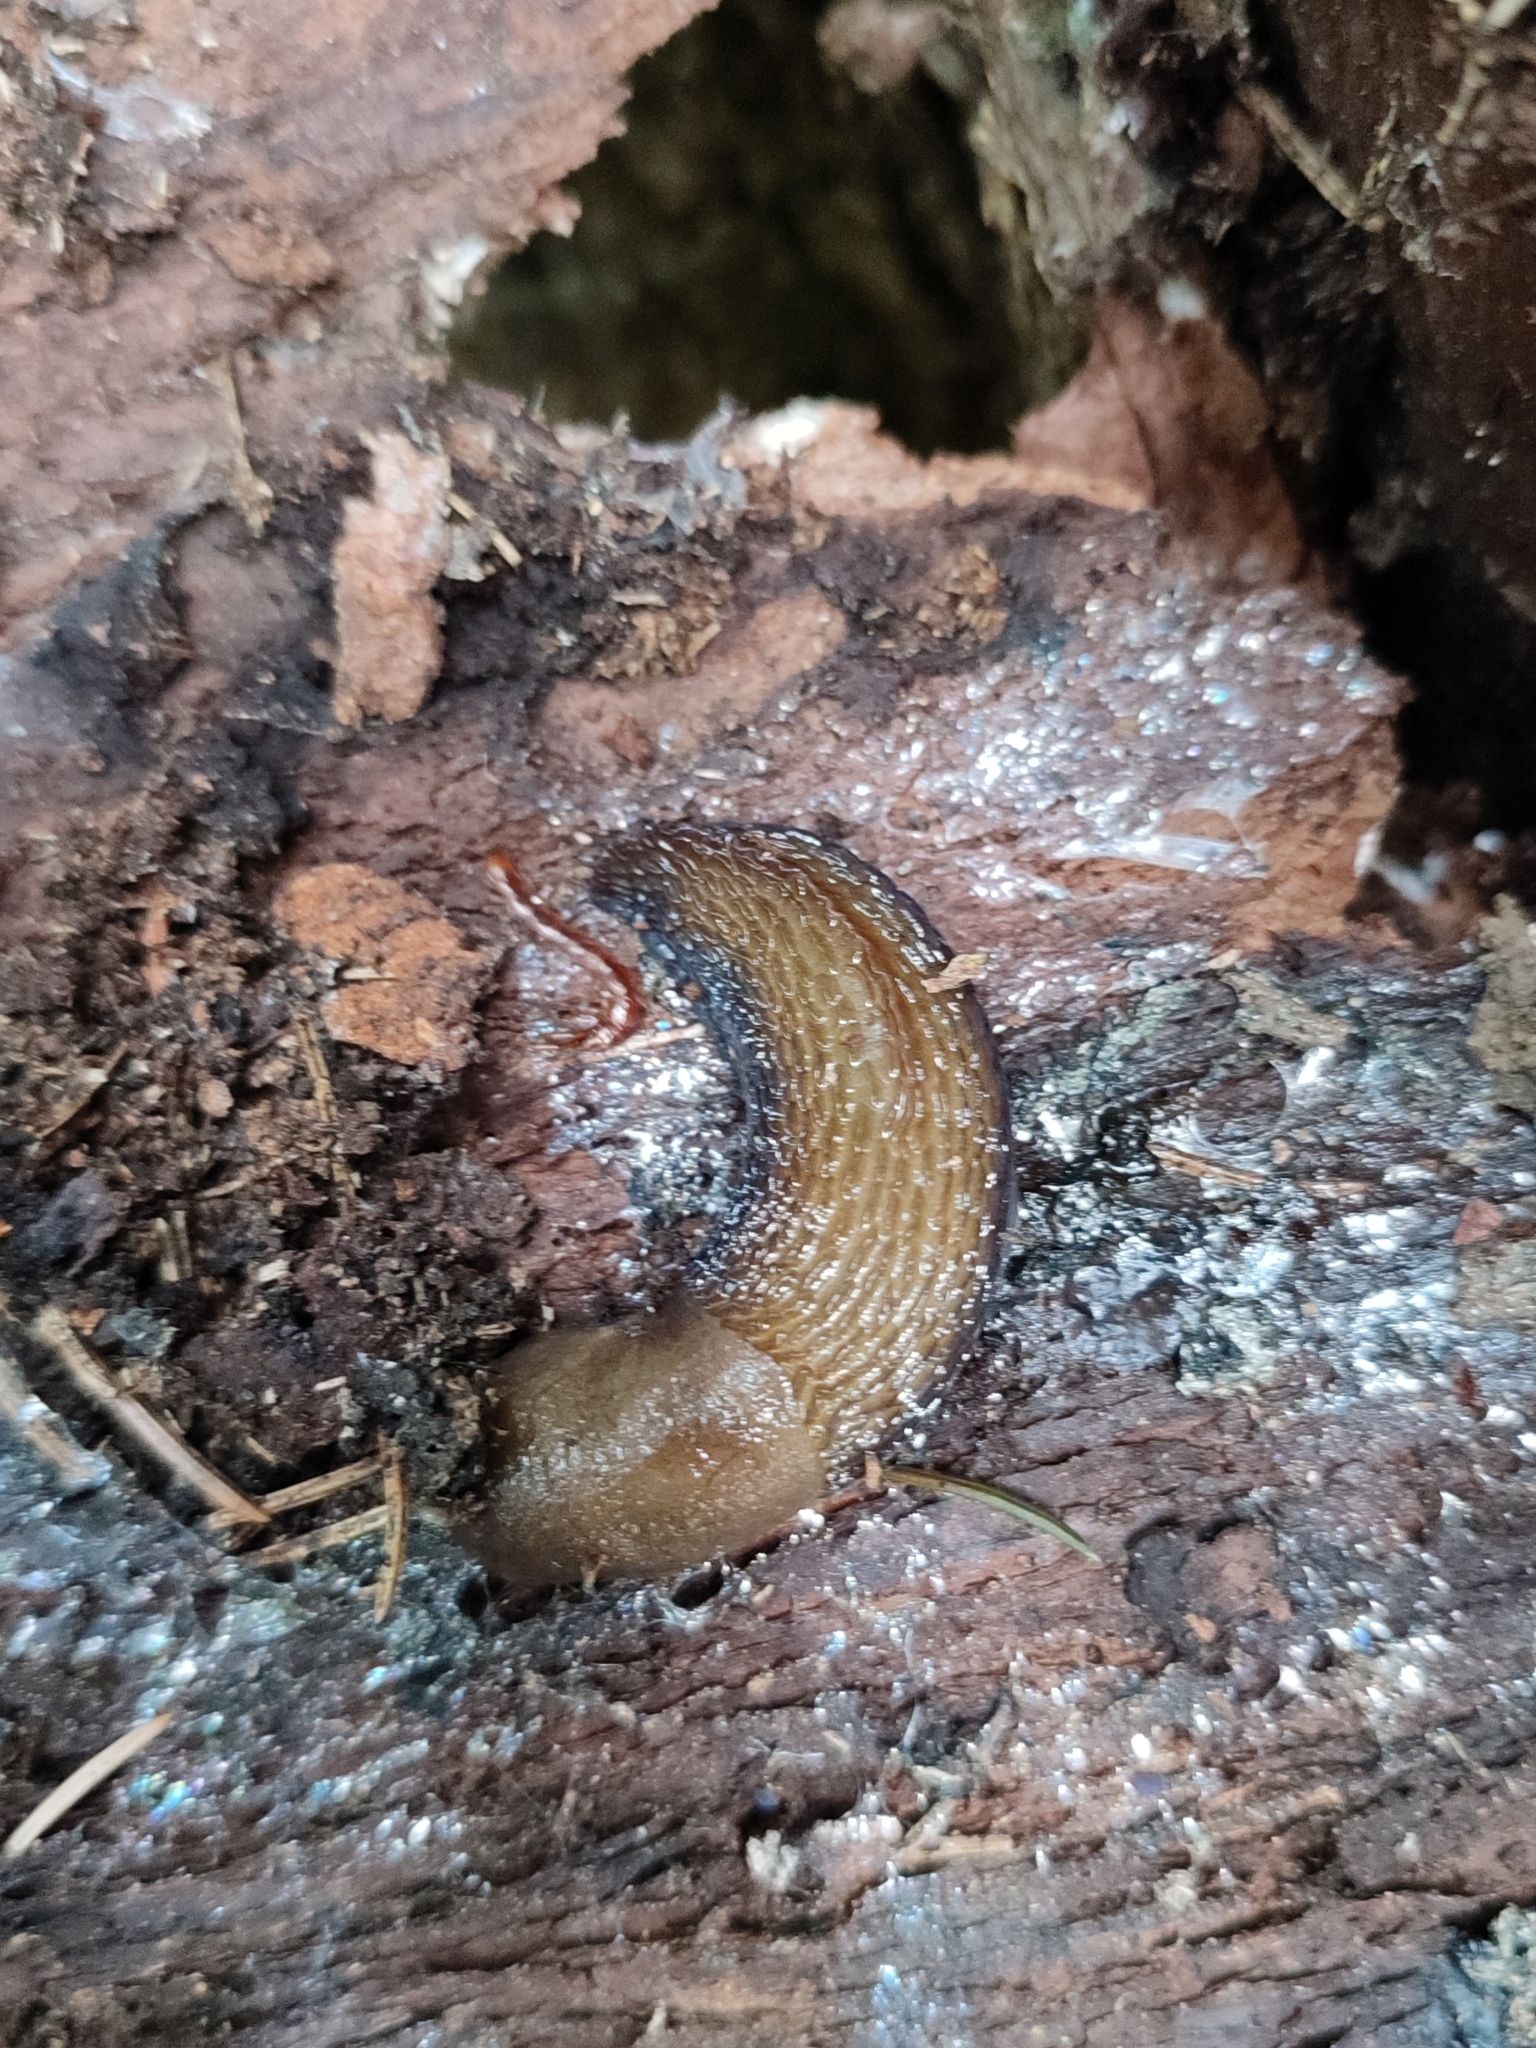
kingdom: Animalia
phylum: Mollusca
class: Gastropoda
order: Stylommatophora
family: Limacidae
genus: Bielzia
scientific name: Bielzia coerulans
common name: Carpathian blue slug
